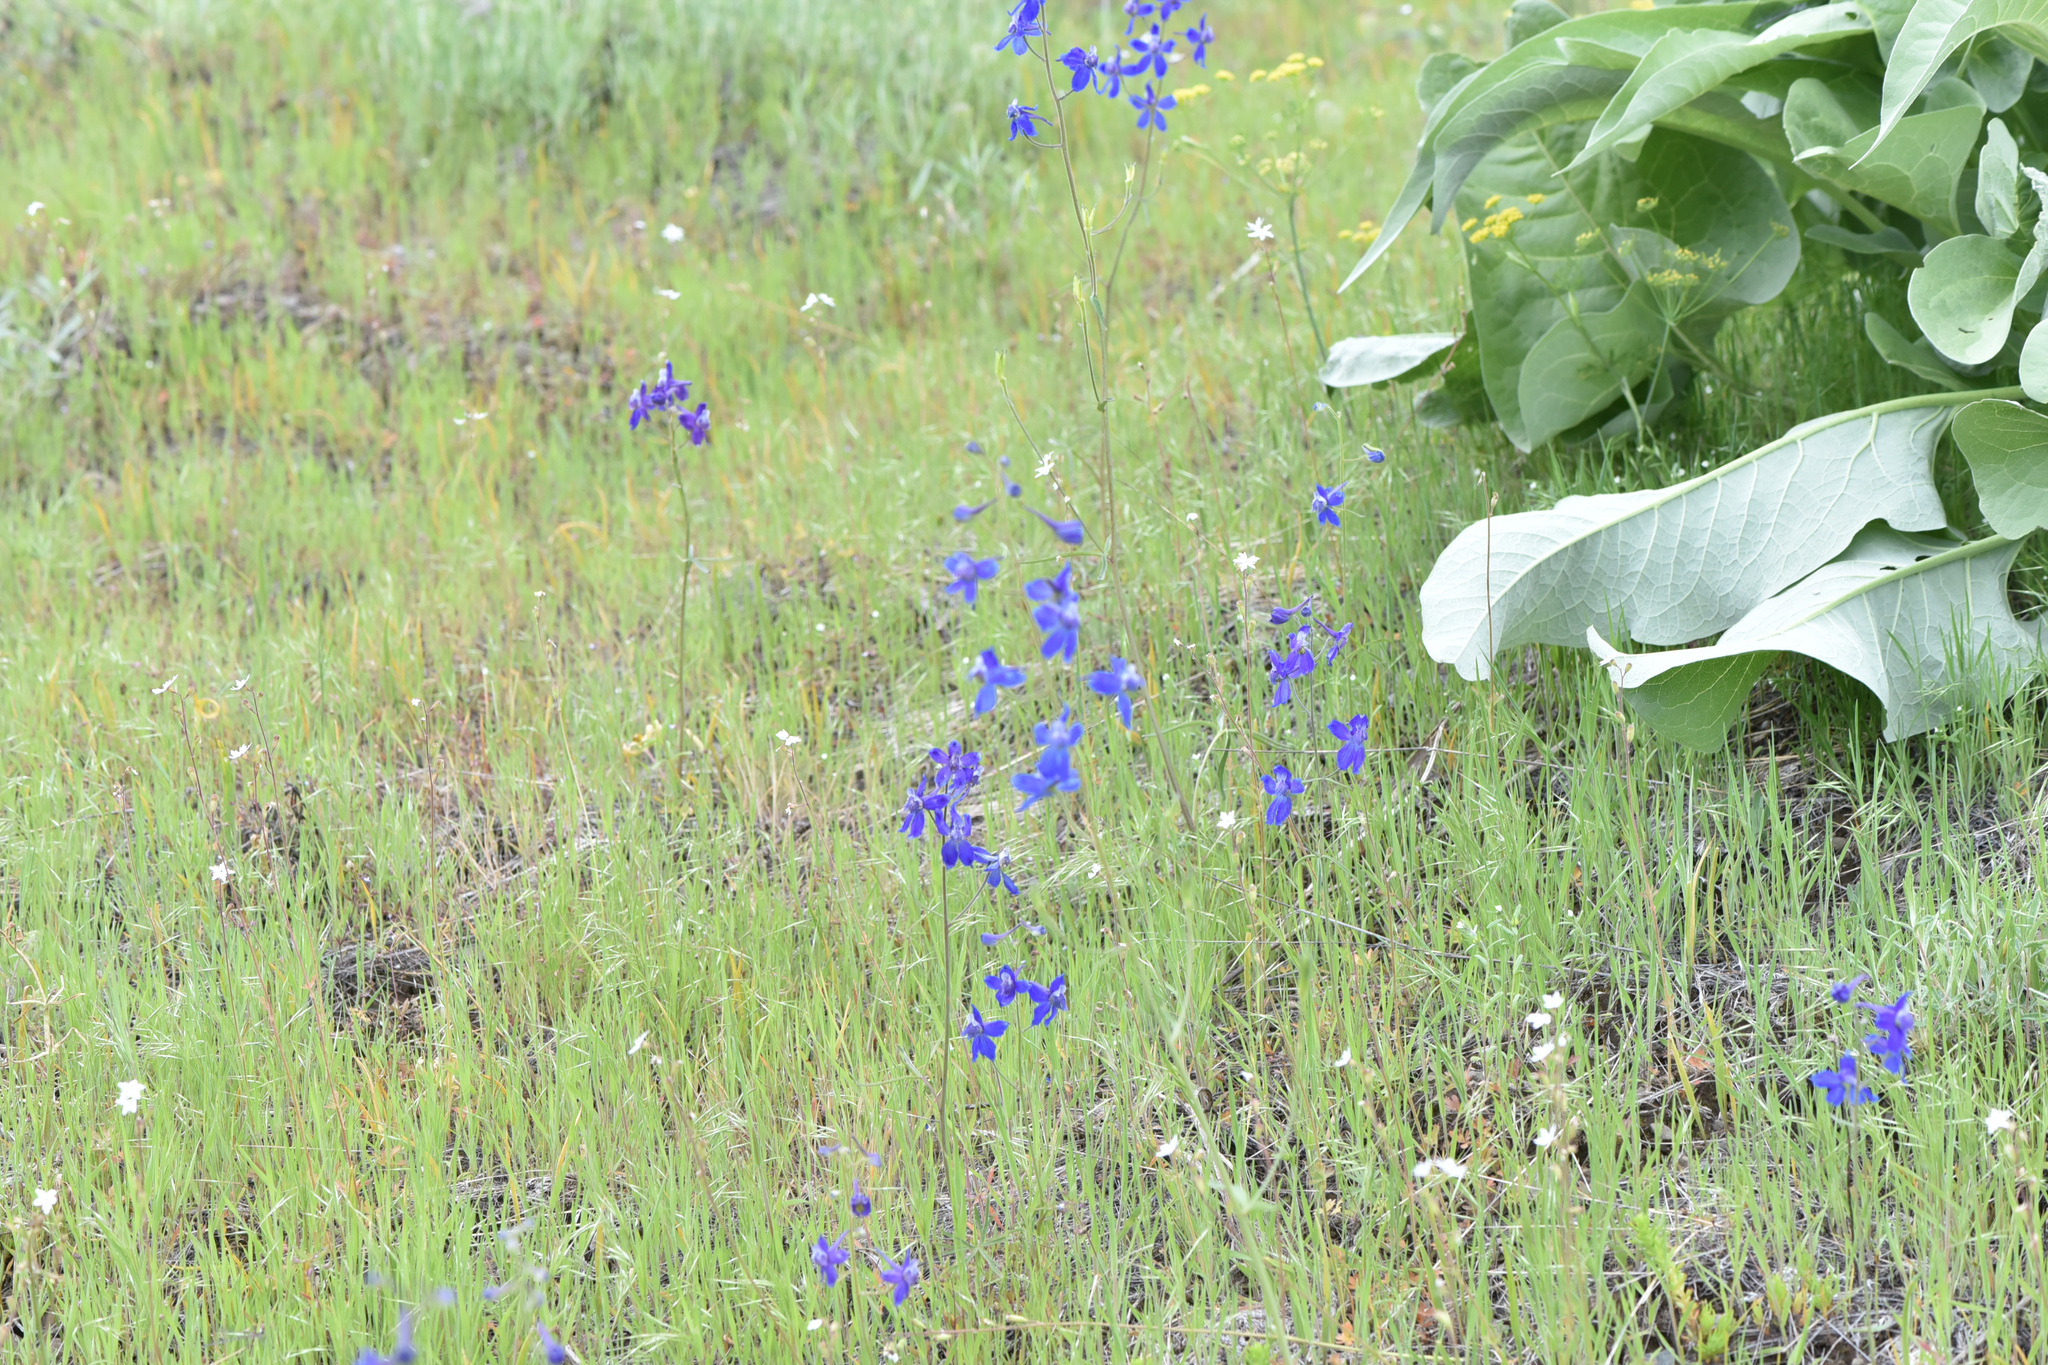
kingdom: Plantae
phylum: Tracheophyta
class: Magnoliopsida
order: Ranunculales
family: Ranunculaceae
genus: Delphinium
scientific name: Delphinium nuttallianum
